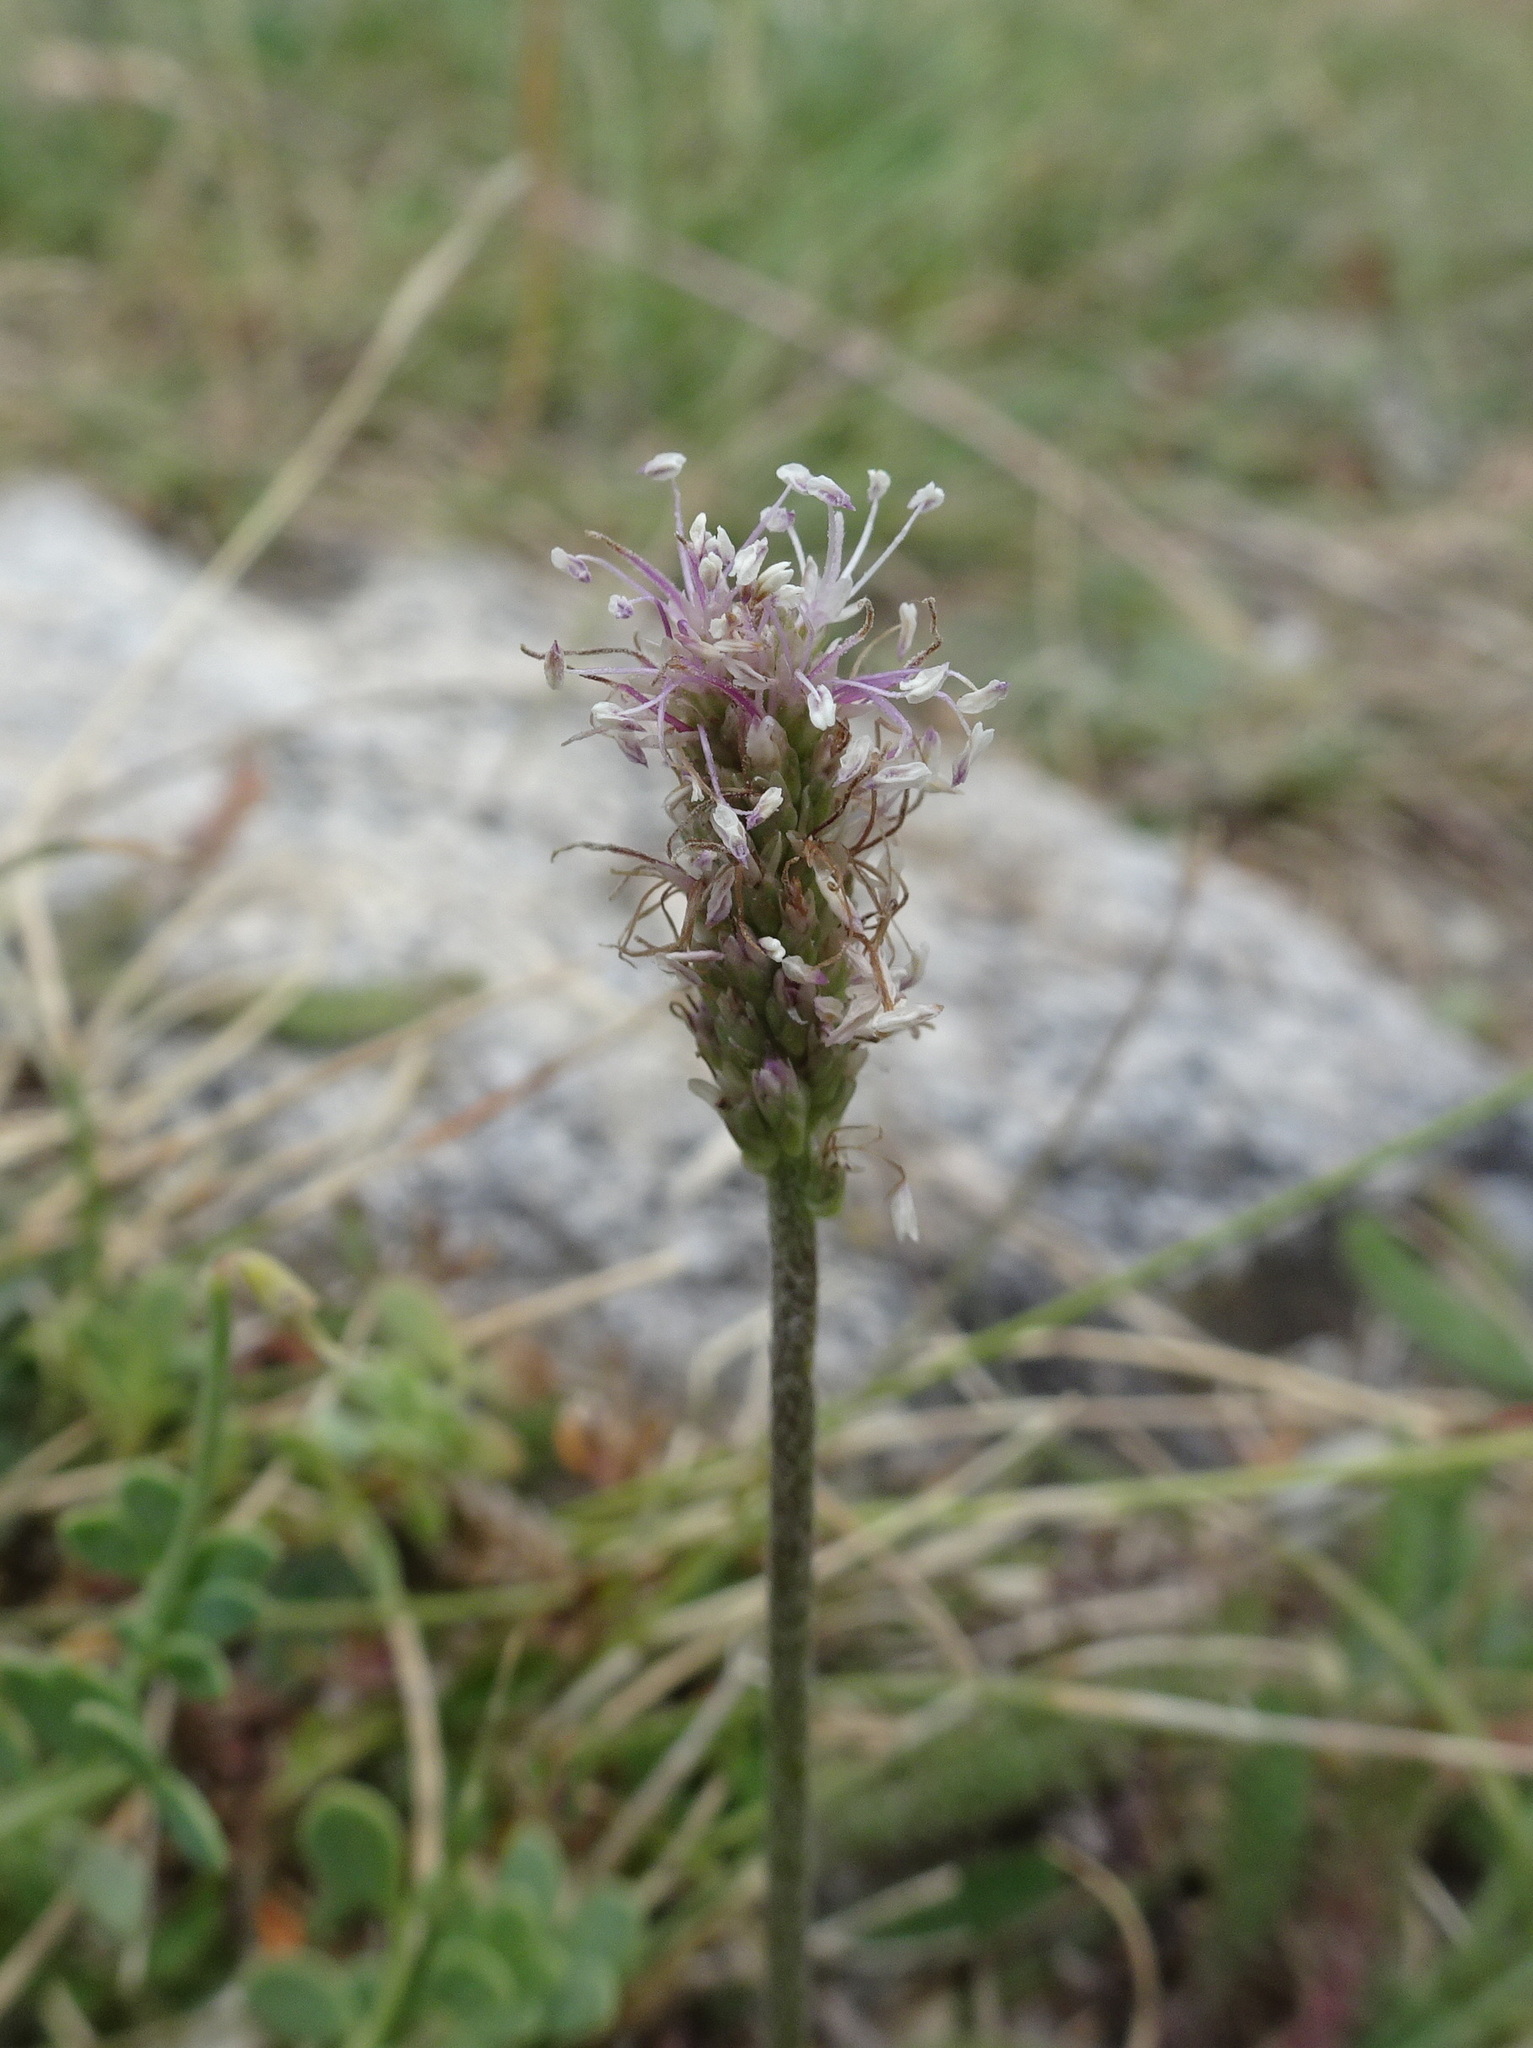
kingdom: Plantae
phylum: Tracheophyta
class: Magnoliopsida
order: Lamiales
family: Plantaginaceae
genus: Plantago
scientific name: Plantago media
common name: Hoary plantain
